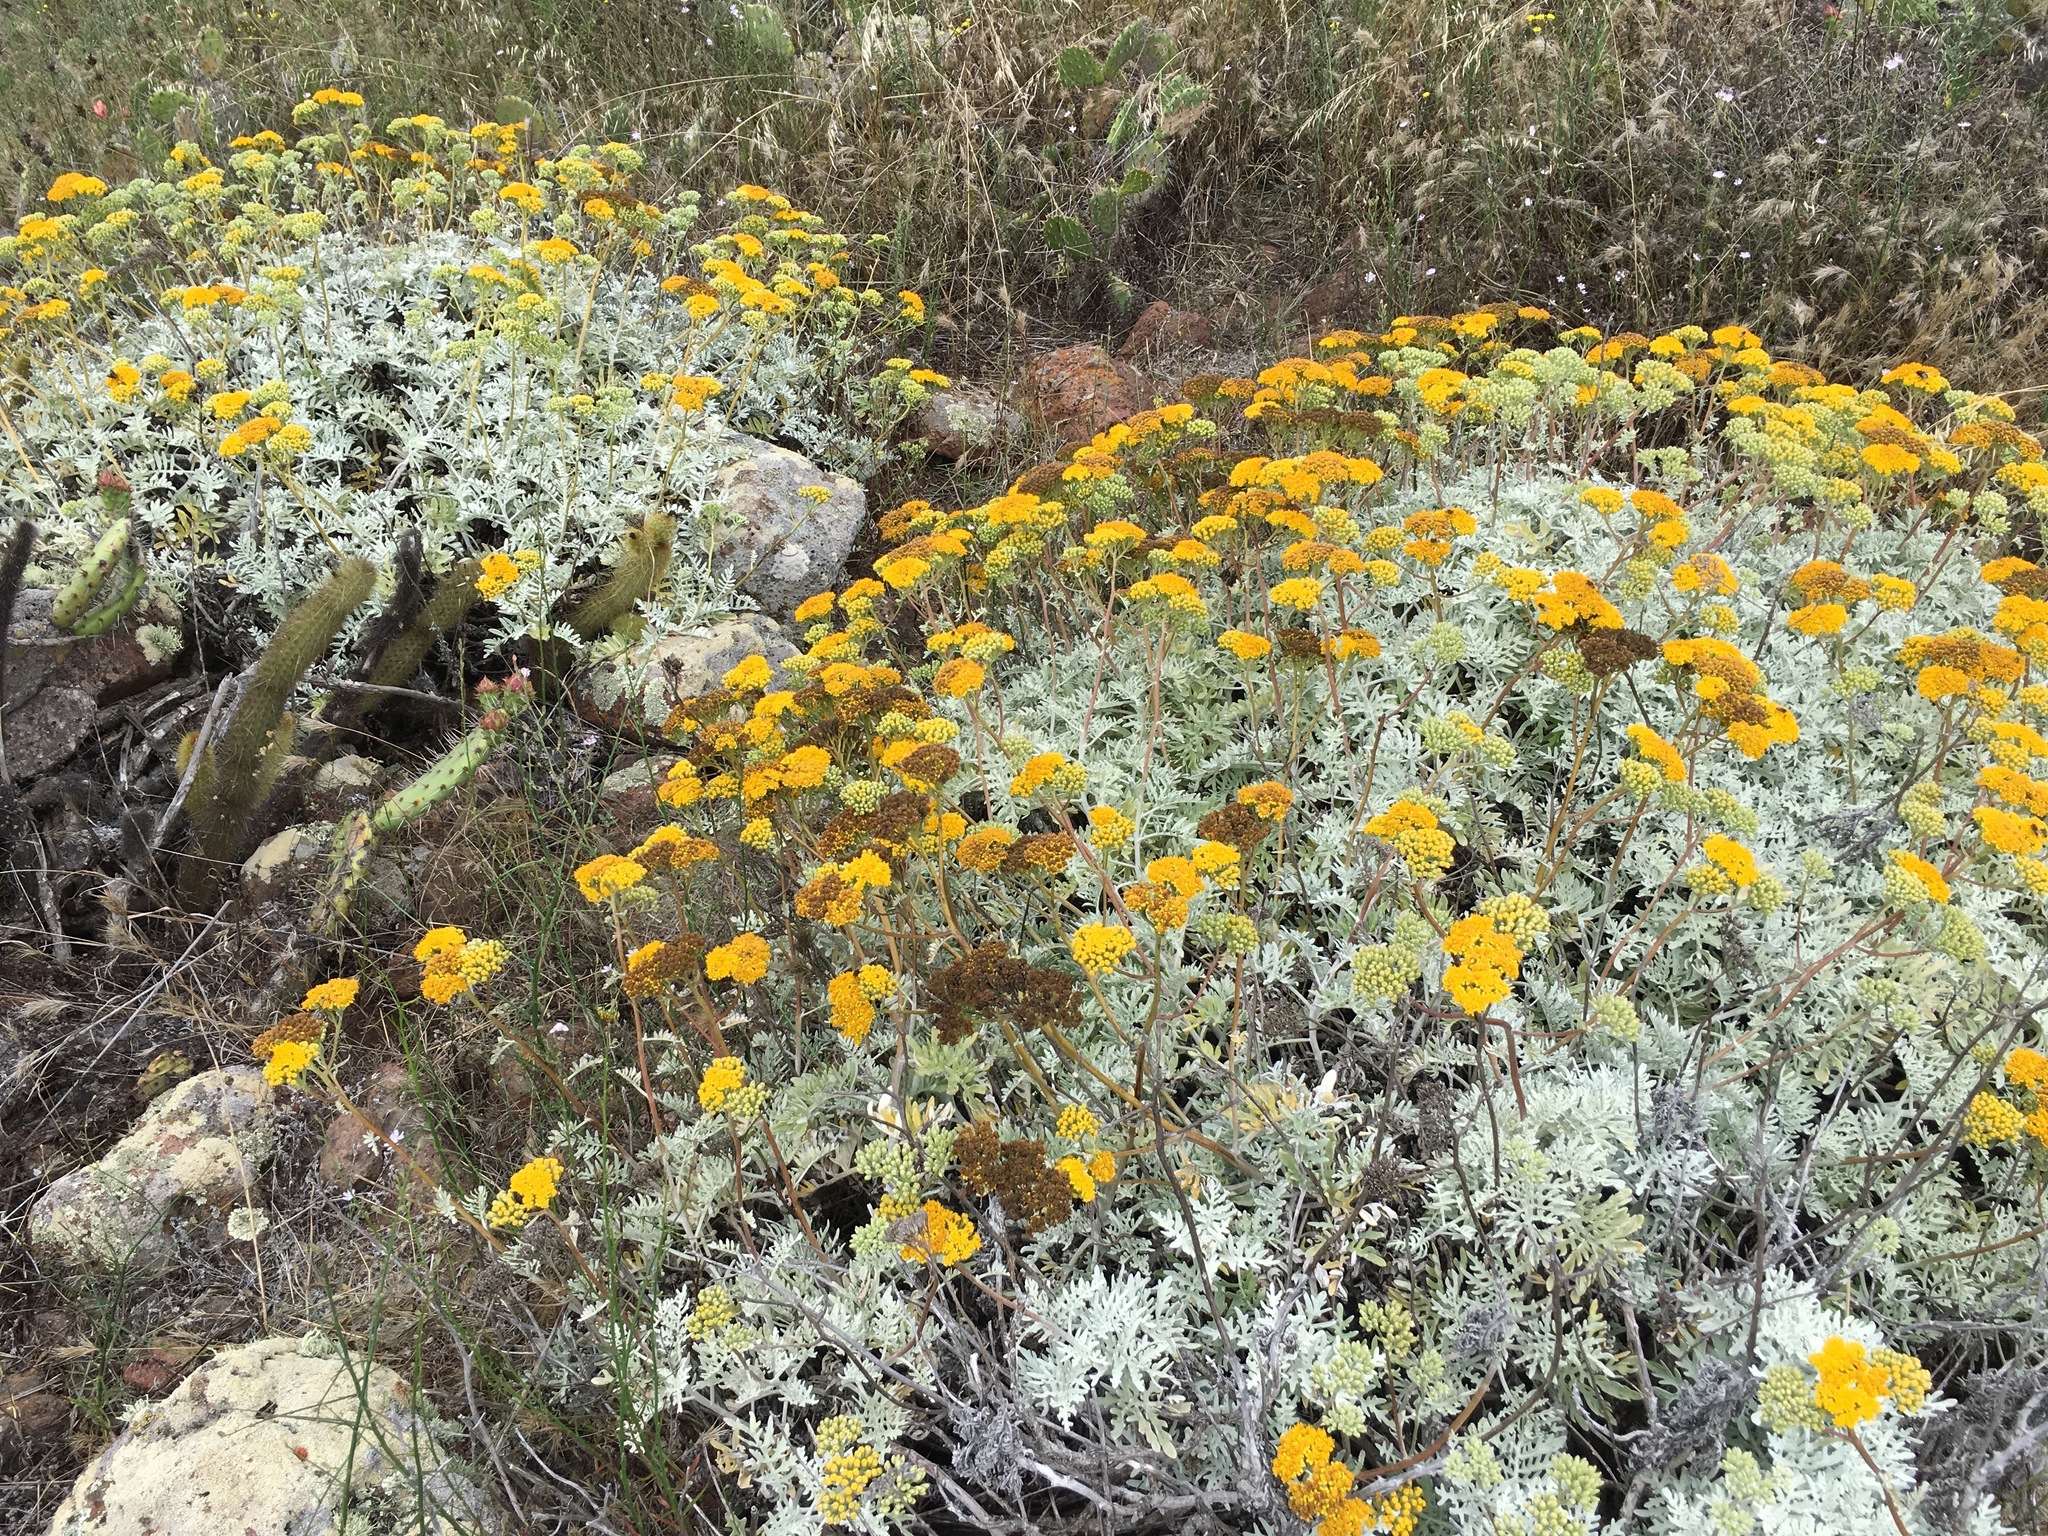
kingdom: Plantae
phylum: Tracheophyta
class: Magnoliopsida
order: Asterales
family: Asteraceae
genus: Constancea
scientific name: Constancea nevinii
